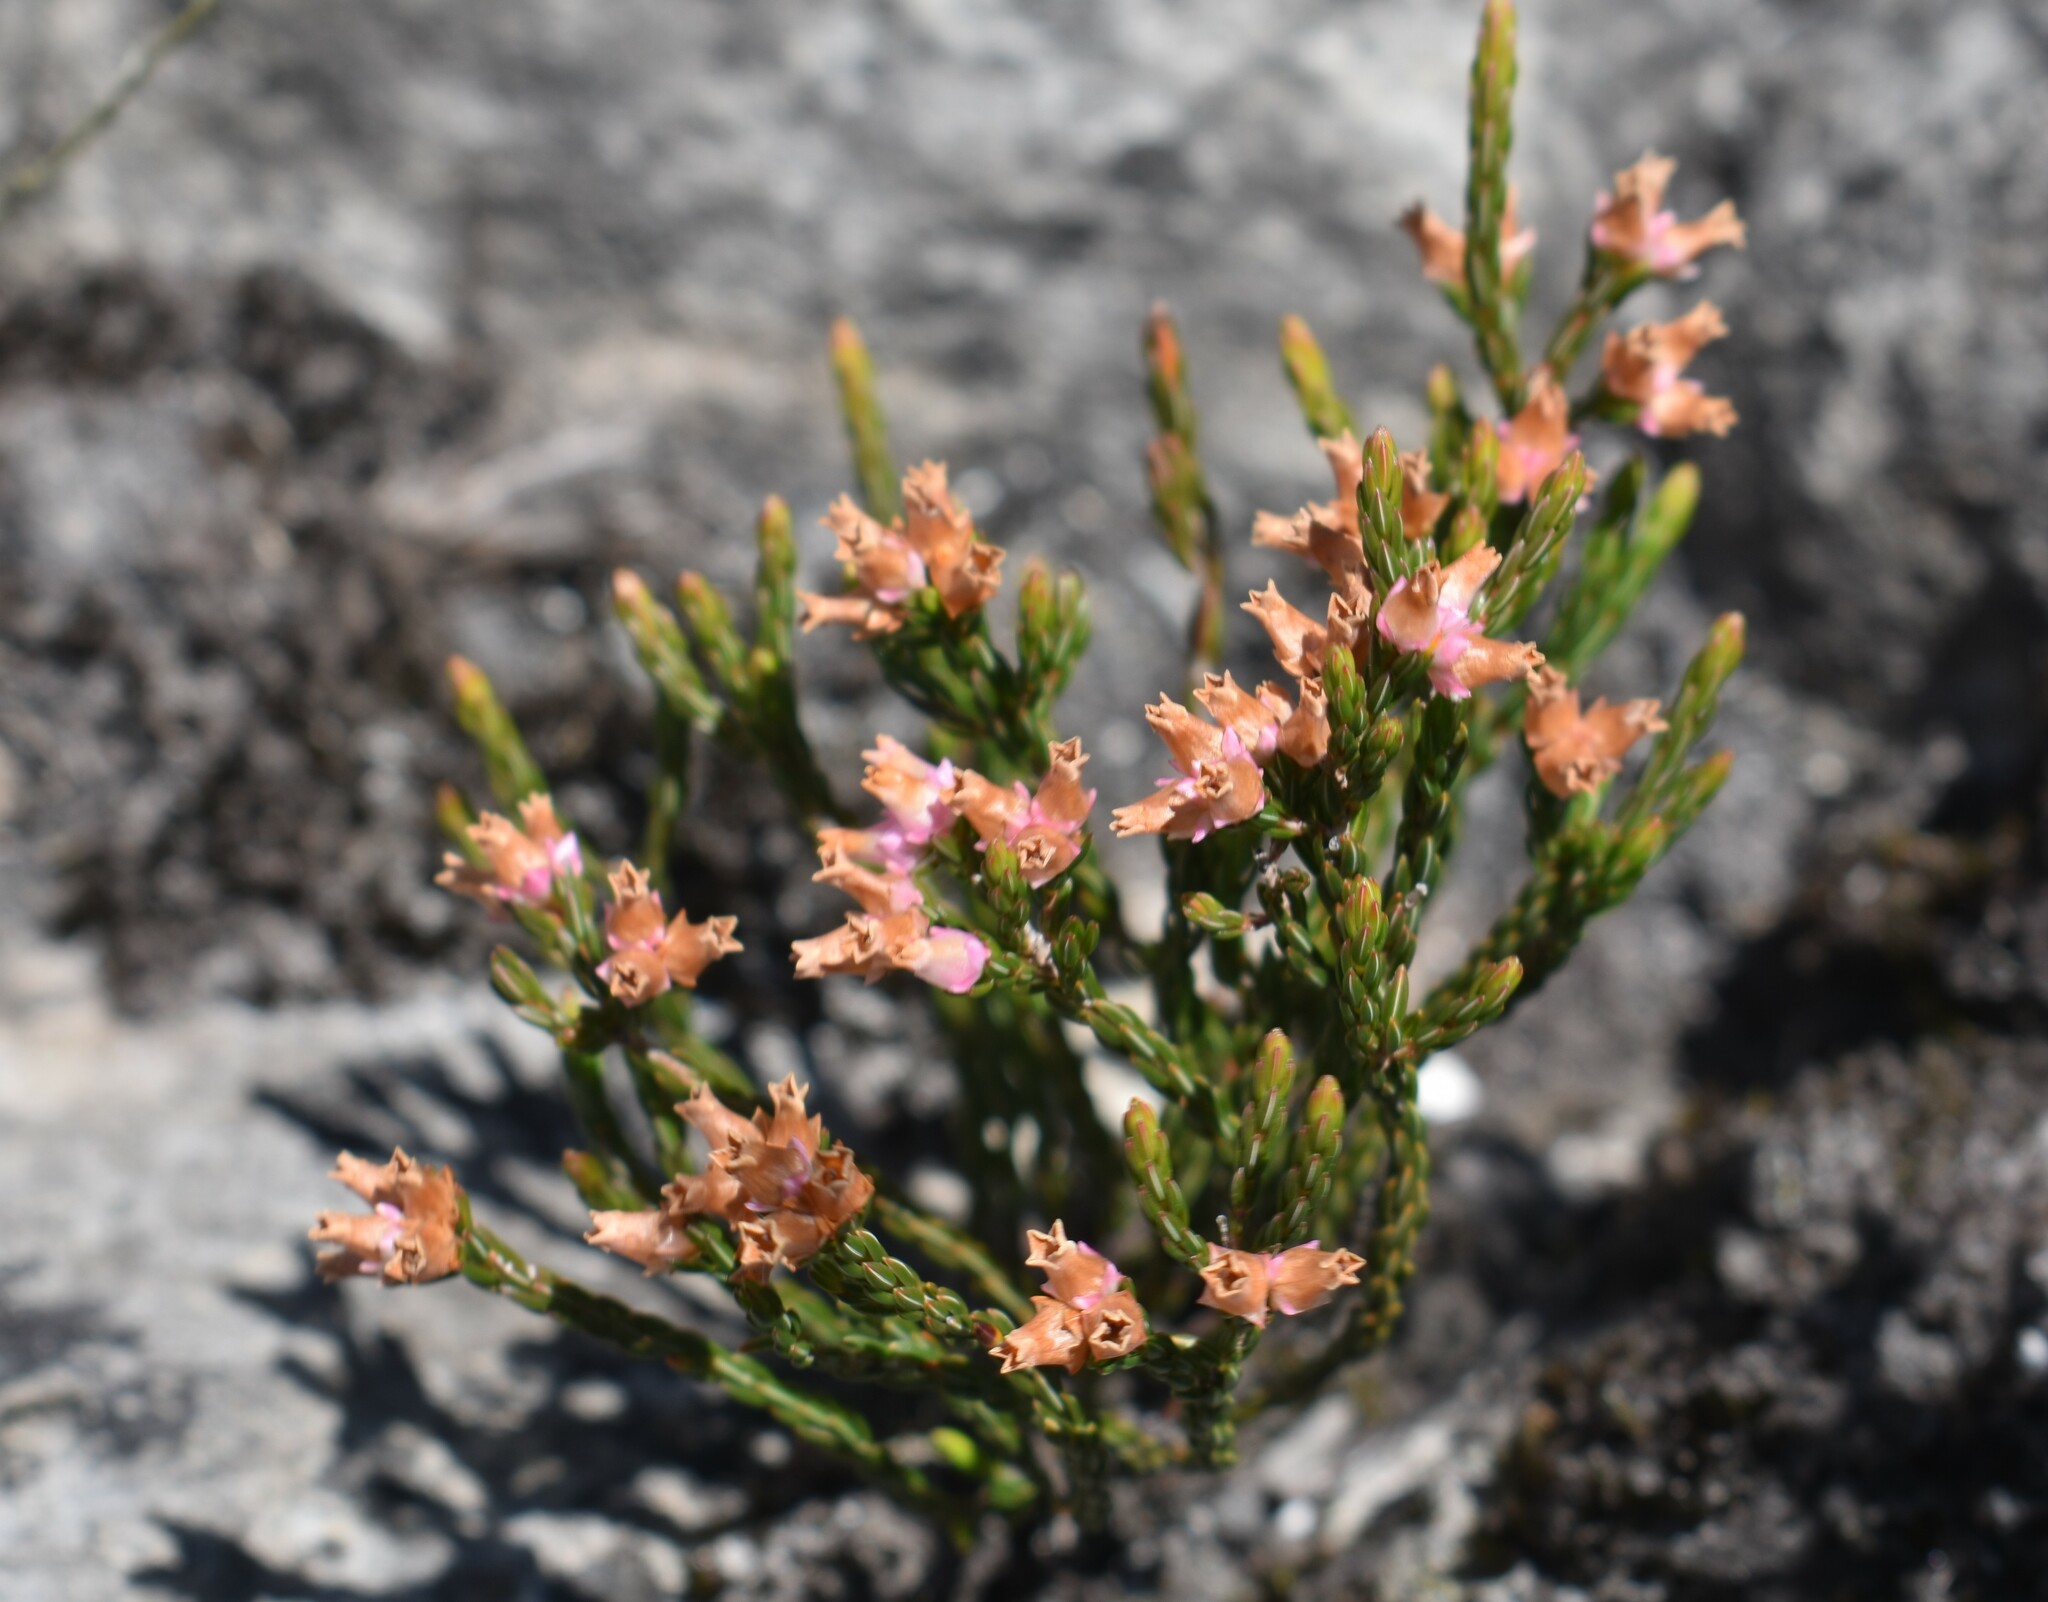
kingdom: Plantae
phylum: Tracheophyta
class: Magnoliopsida
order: Ericales
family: Ericaceae
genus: Erica
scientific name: Erica steinbergiana
